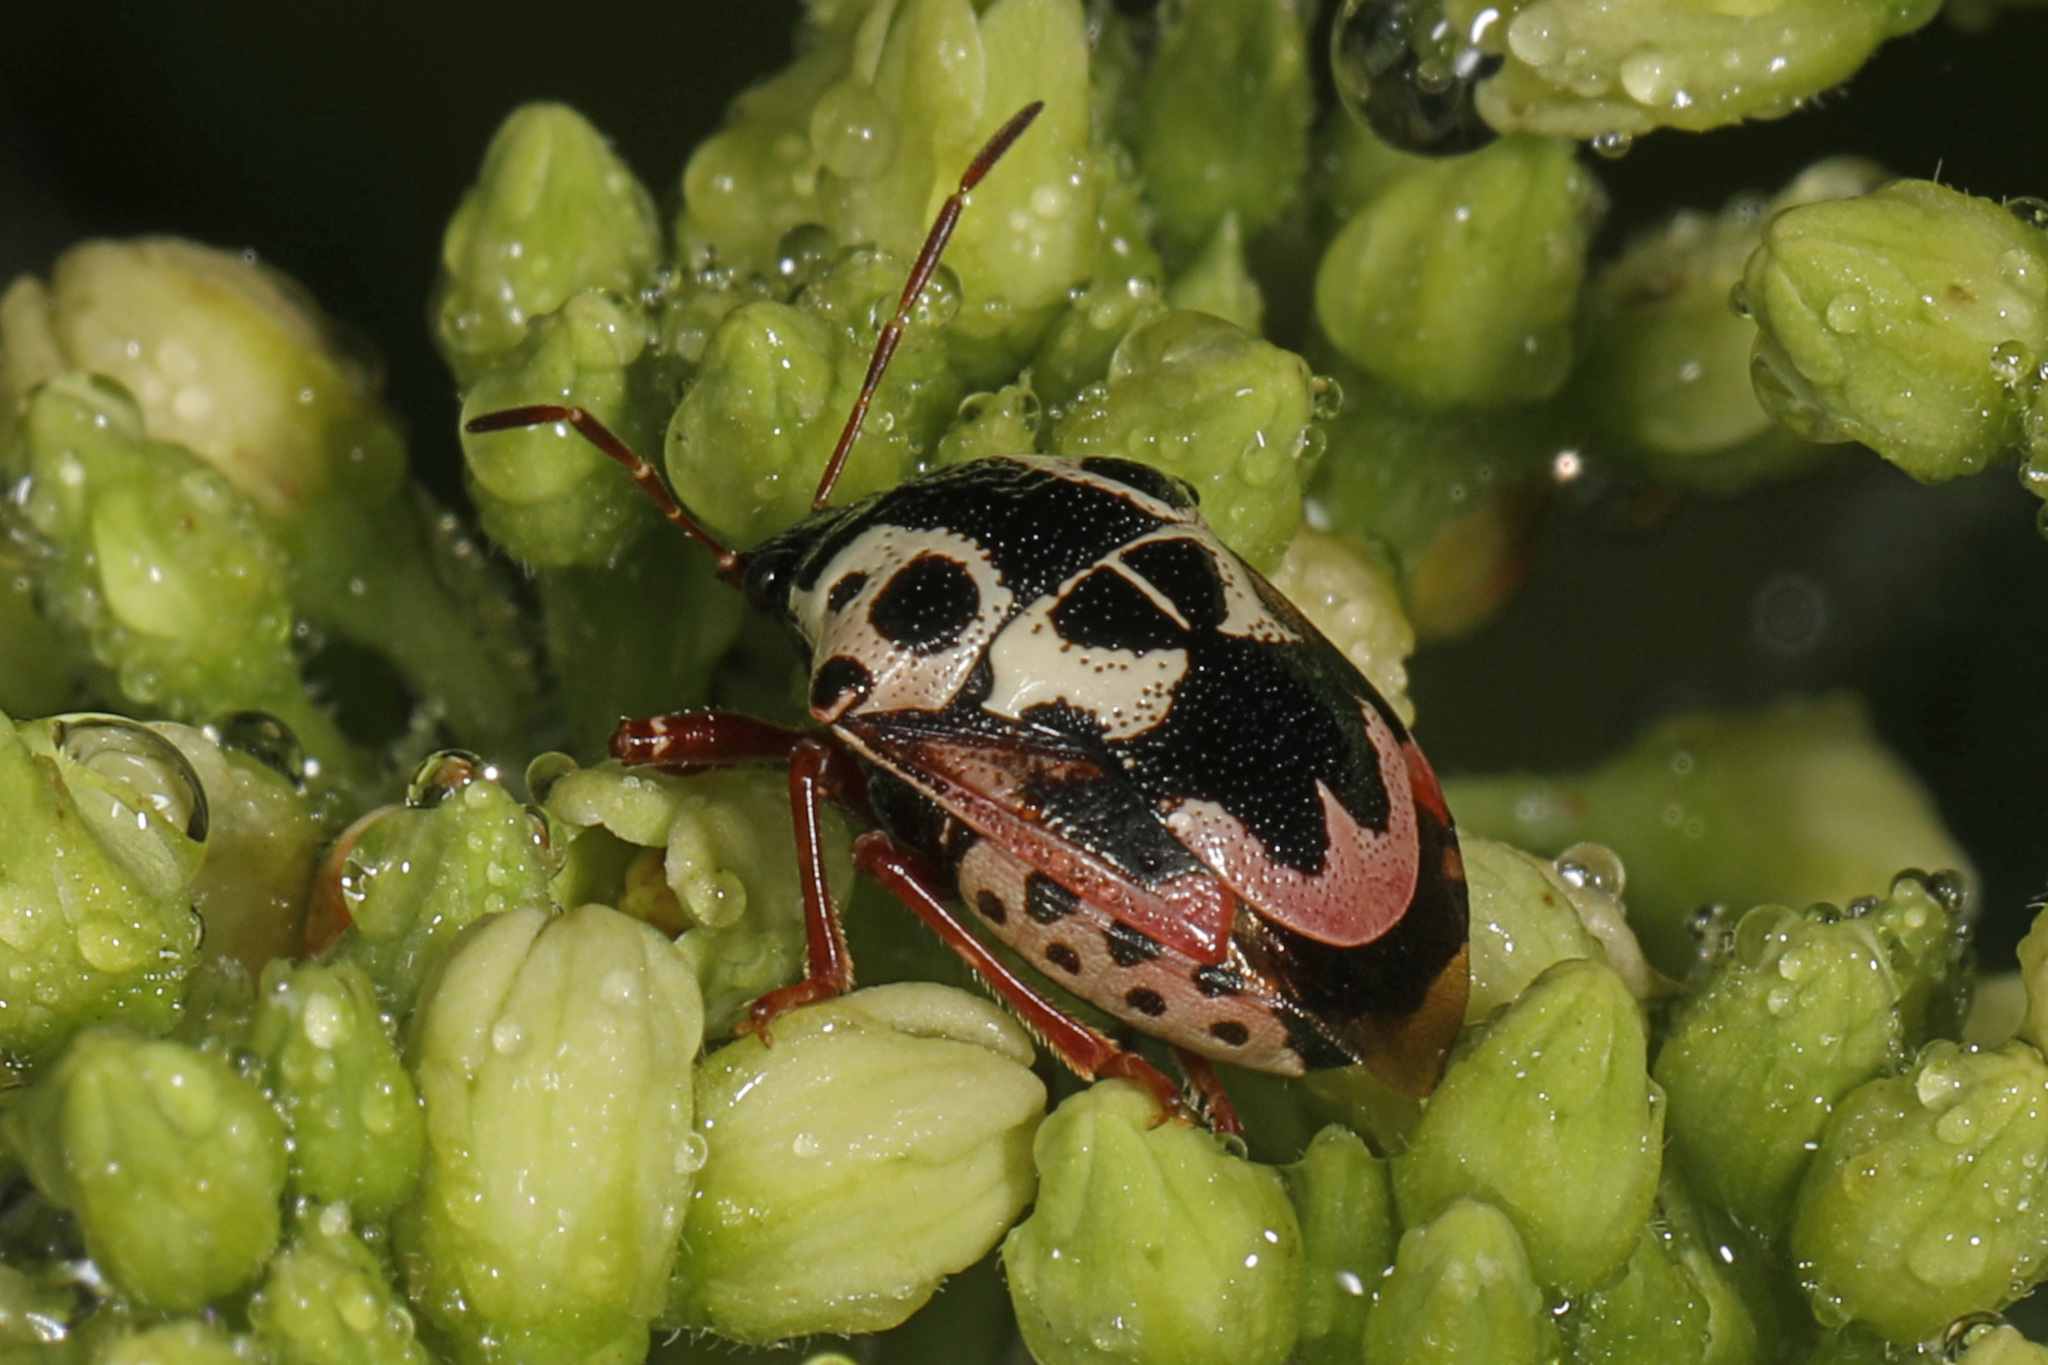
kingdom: Animalia
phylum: Arthropoda
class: Insecta
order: Hemiptera
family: Pentatomidae
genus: Stiretrus
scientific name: Stiretrus anchorago
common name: Anchor stink bug
